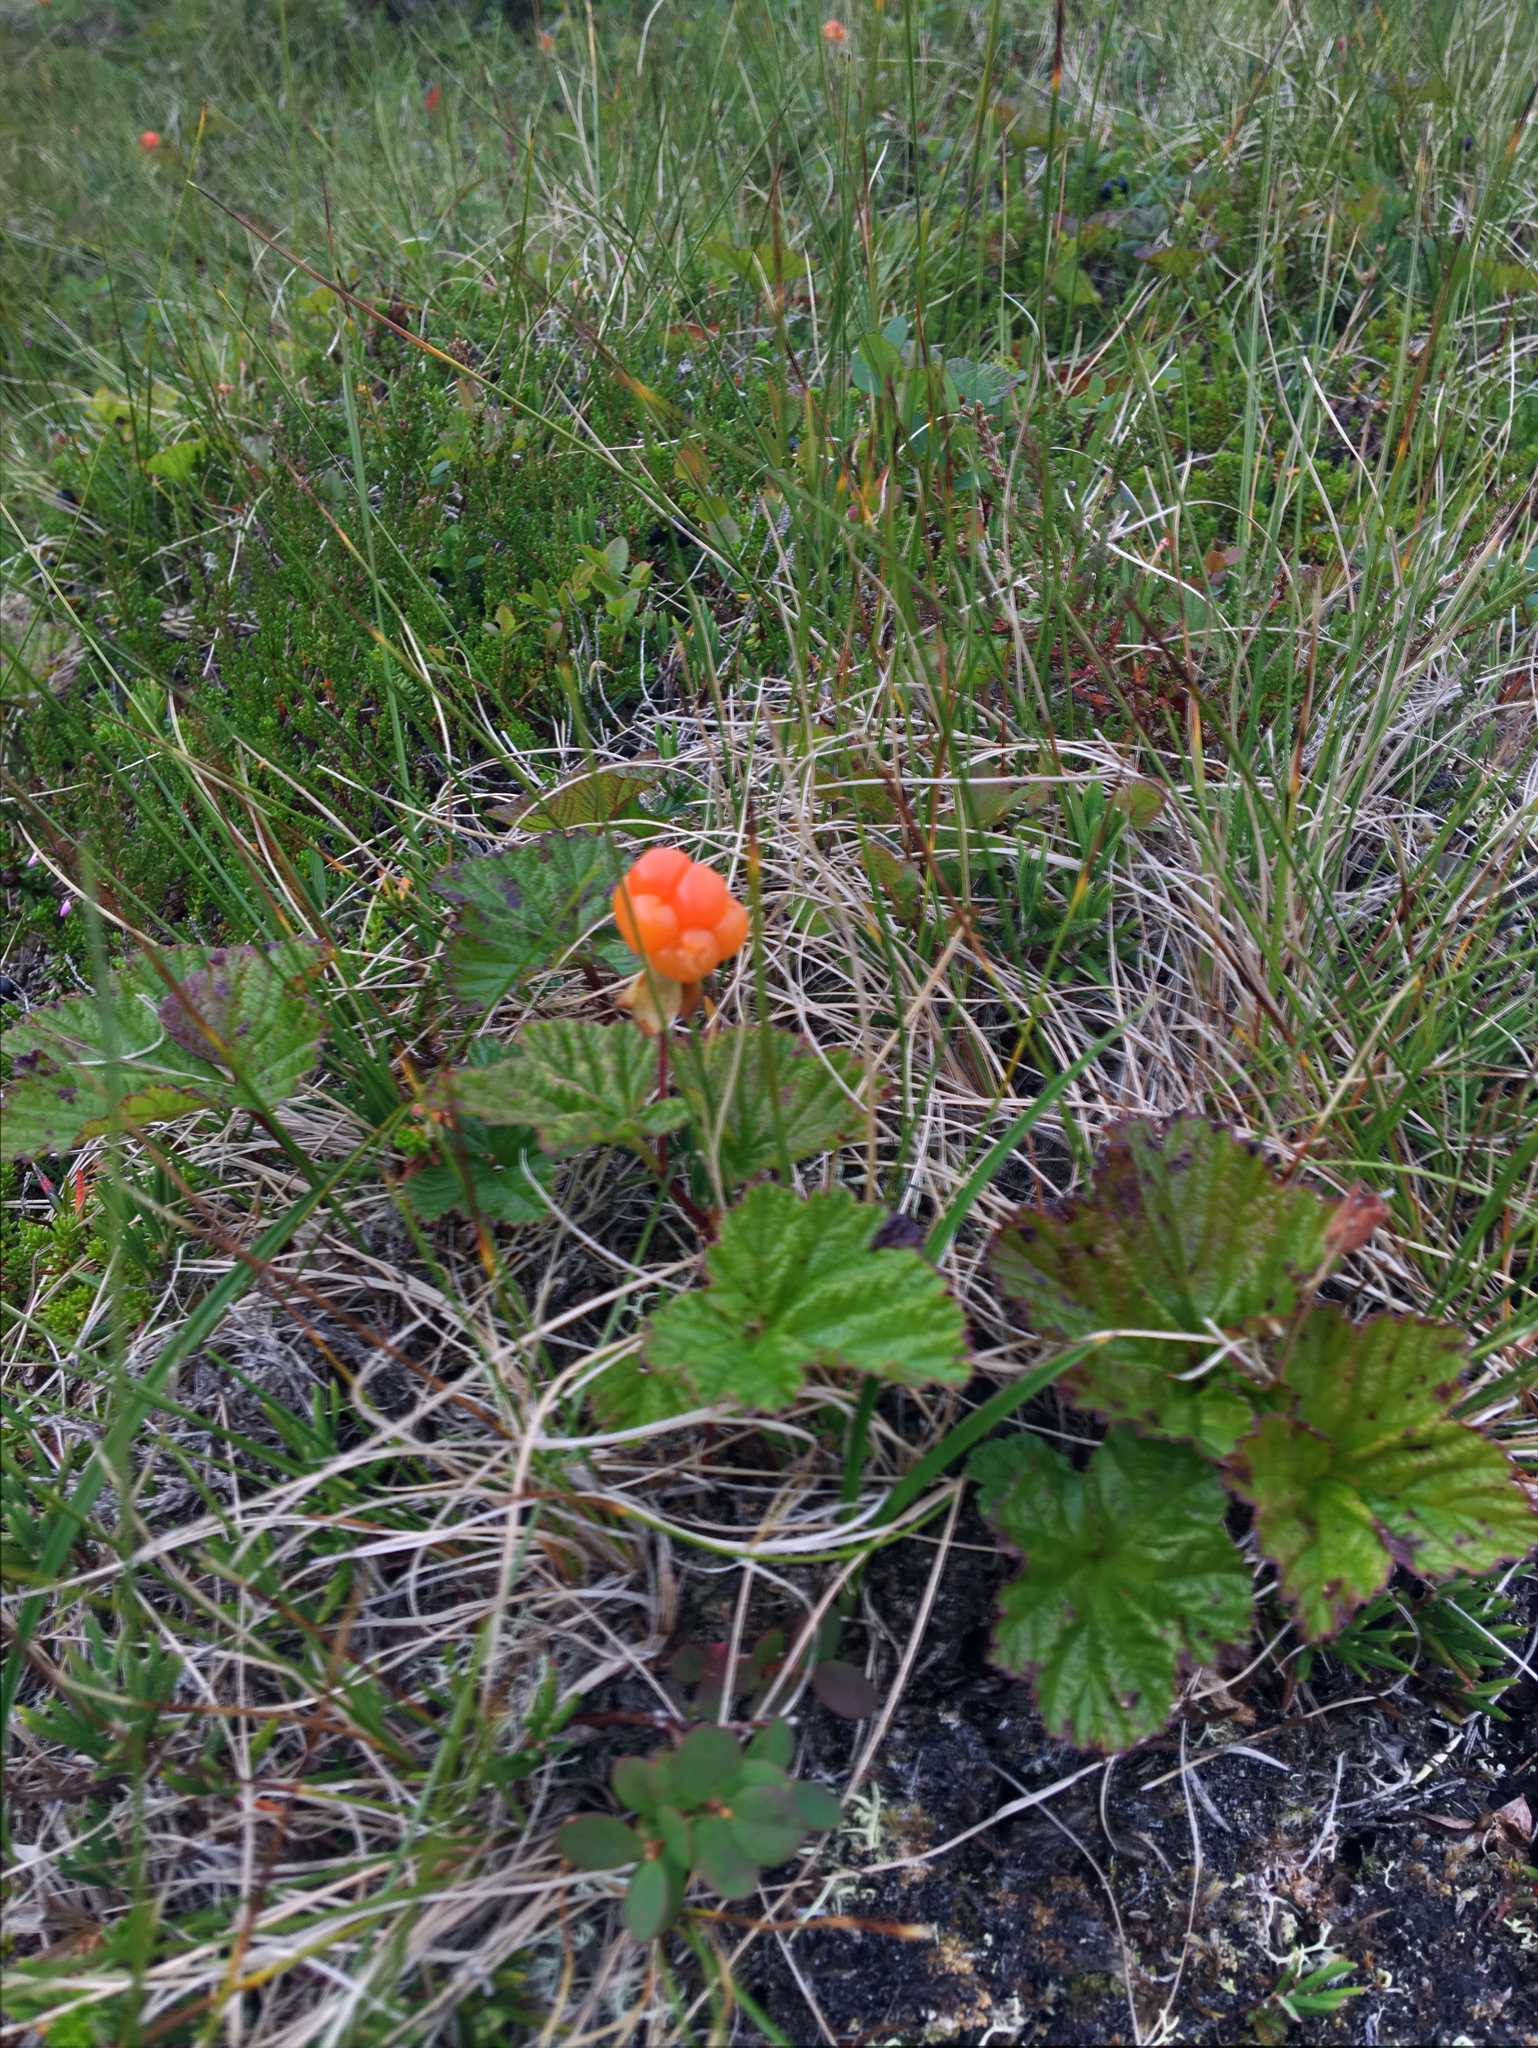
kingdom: Plantae
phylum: Tracheophyta
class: Magnoliopsida
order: Rosales
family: Rosaceae
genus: Rubus
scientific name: Rubus chamaemorus
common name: Cloudberry
